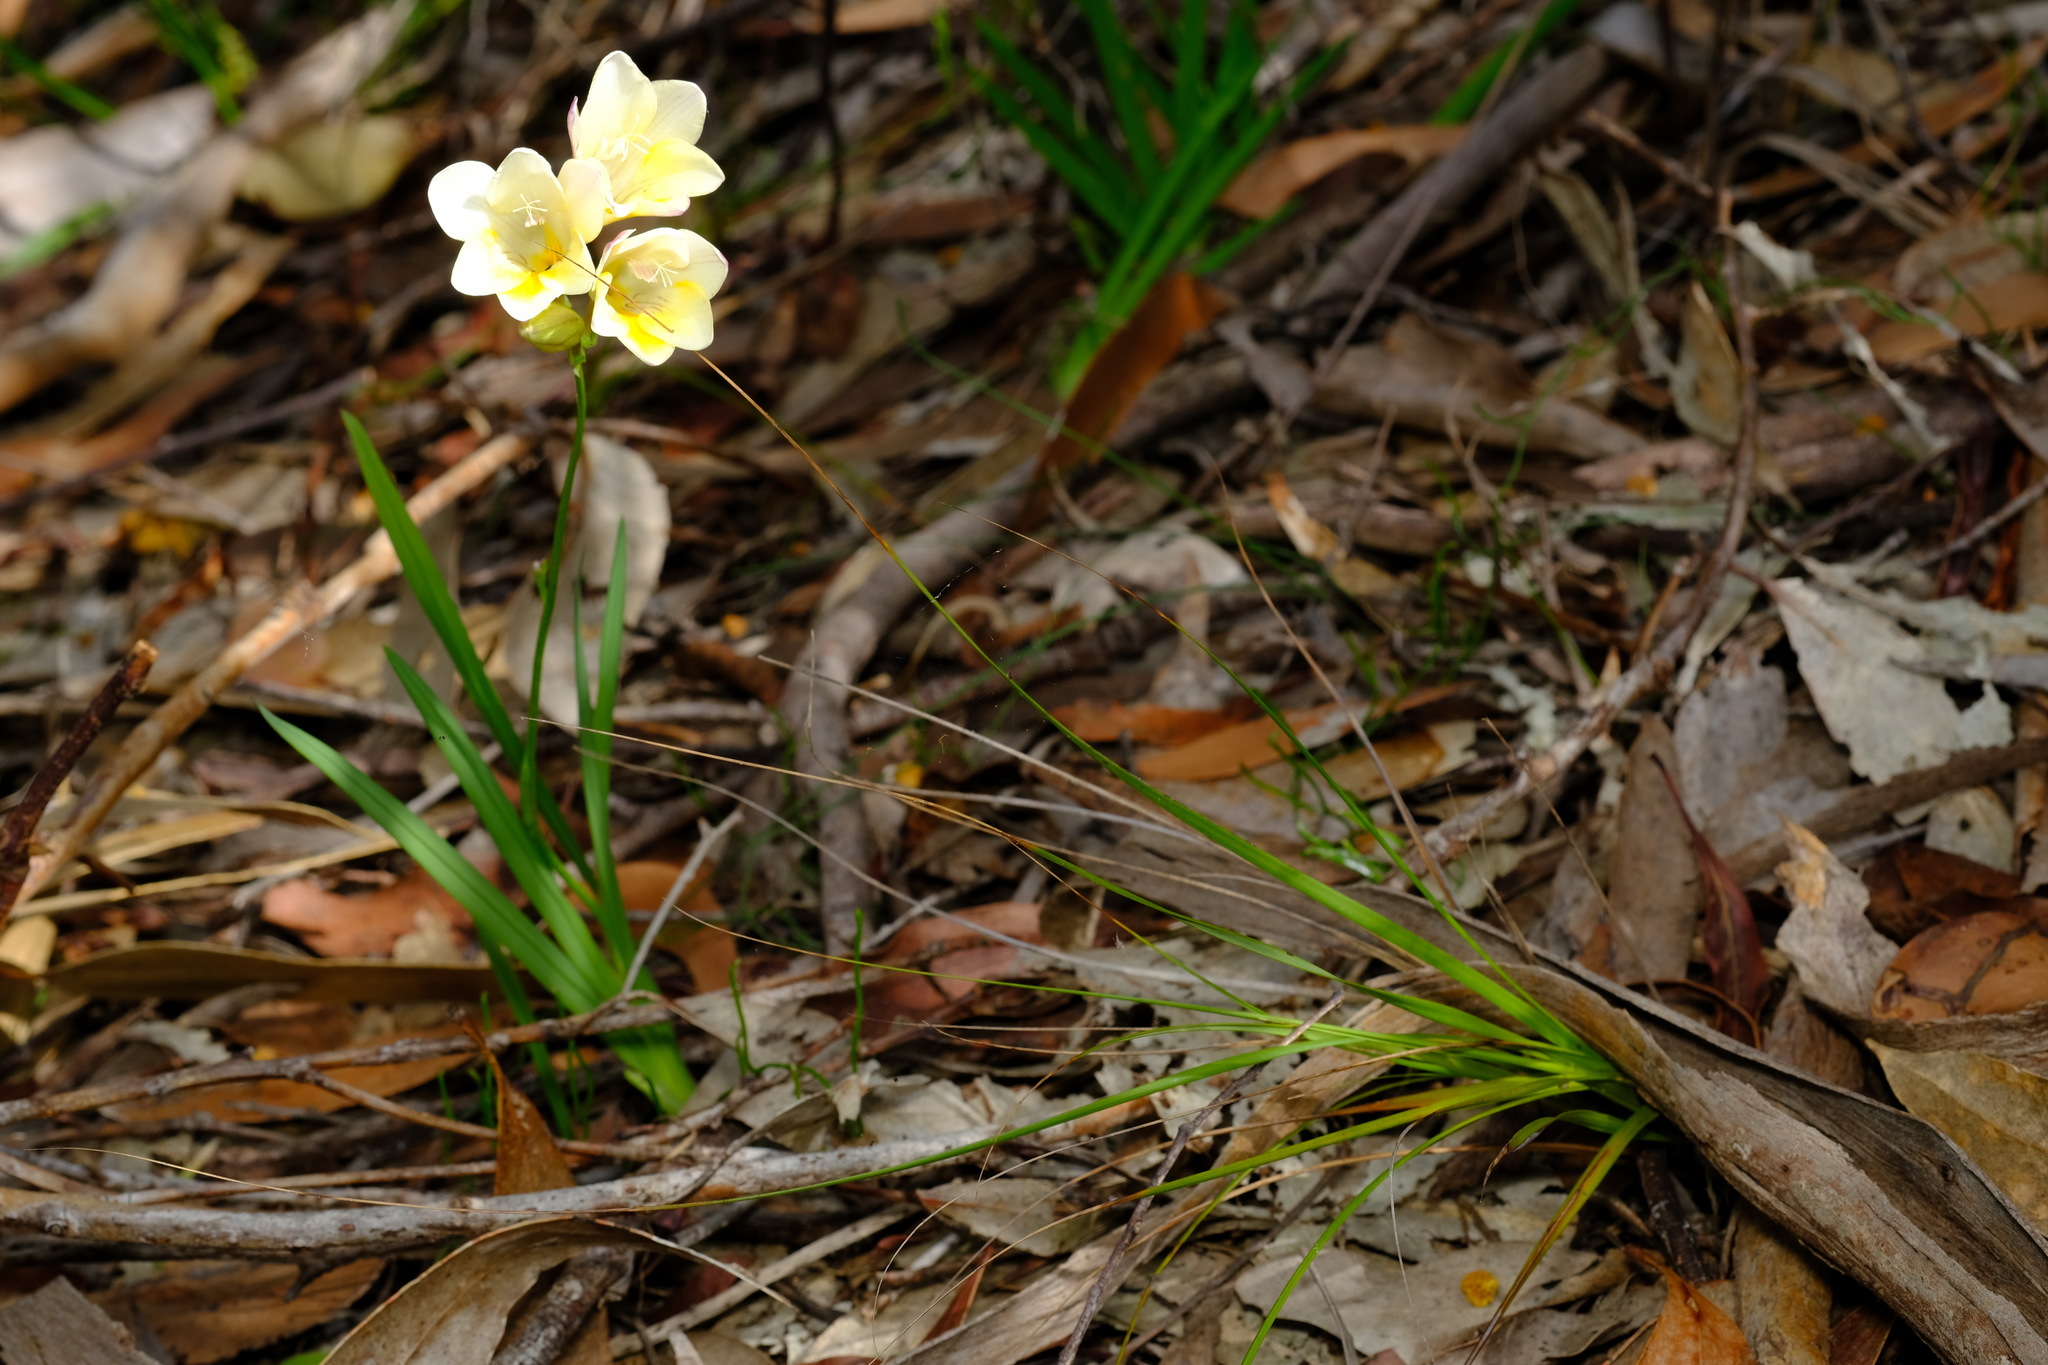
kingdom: Plantae
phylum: Tracheophyta
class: Liliopsida
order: Asparagales
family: Iridaceae
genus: Freesia
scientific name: Freesia leichtlinii
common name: Freesia
